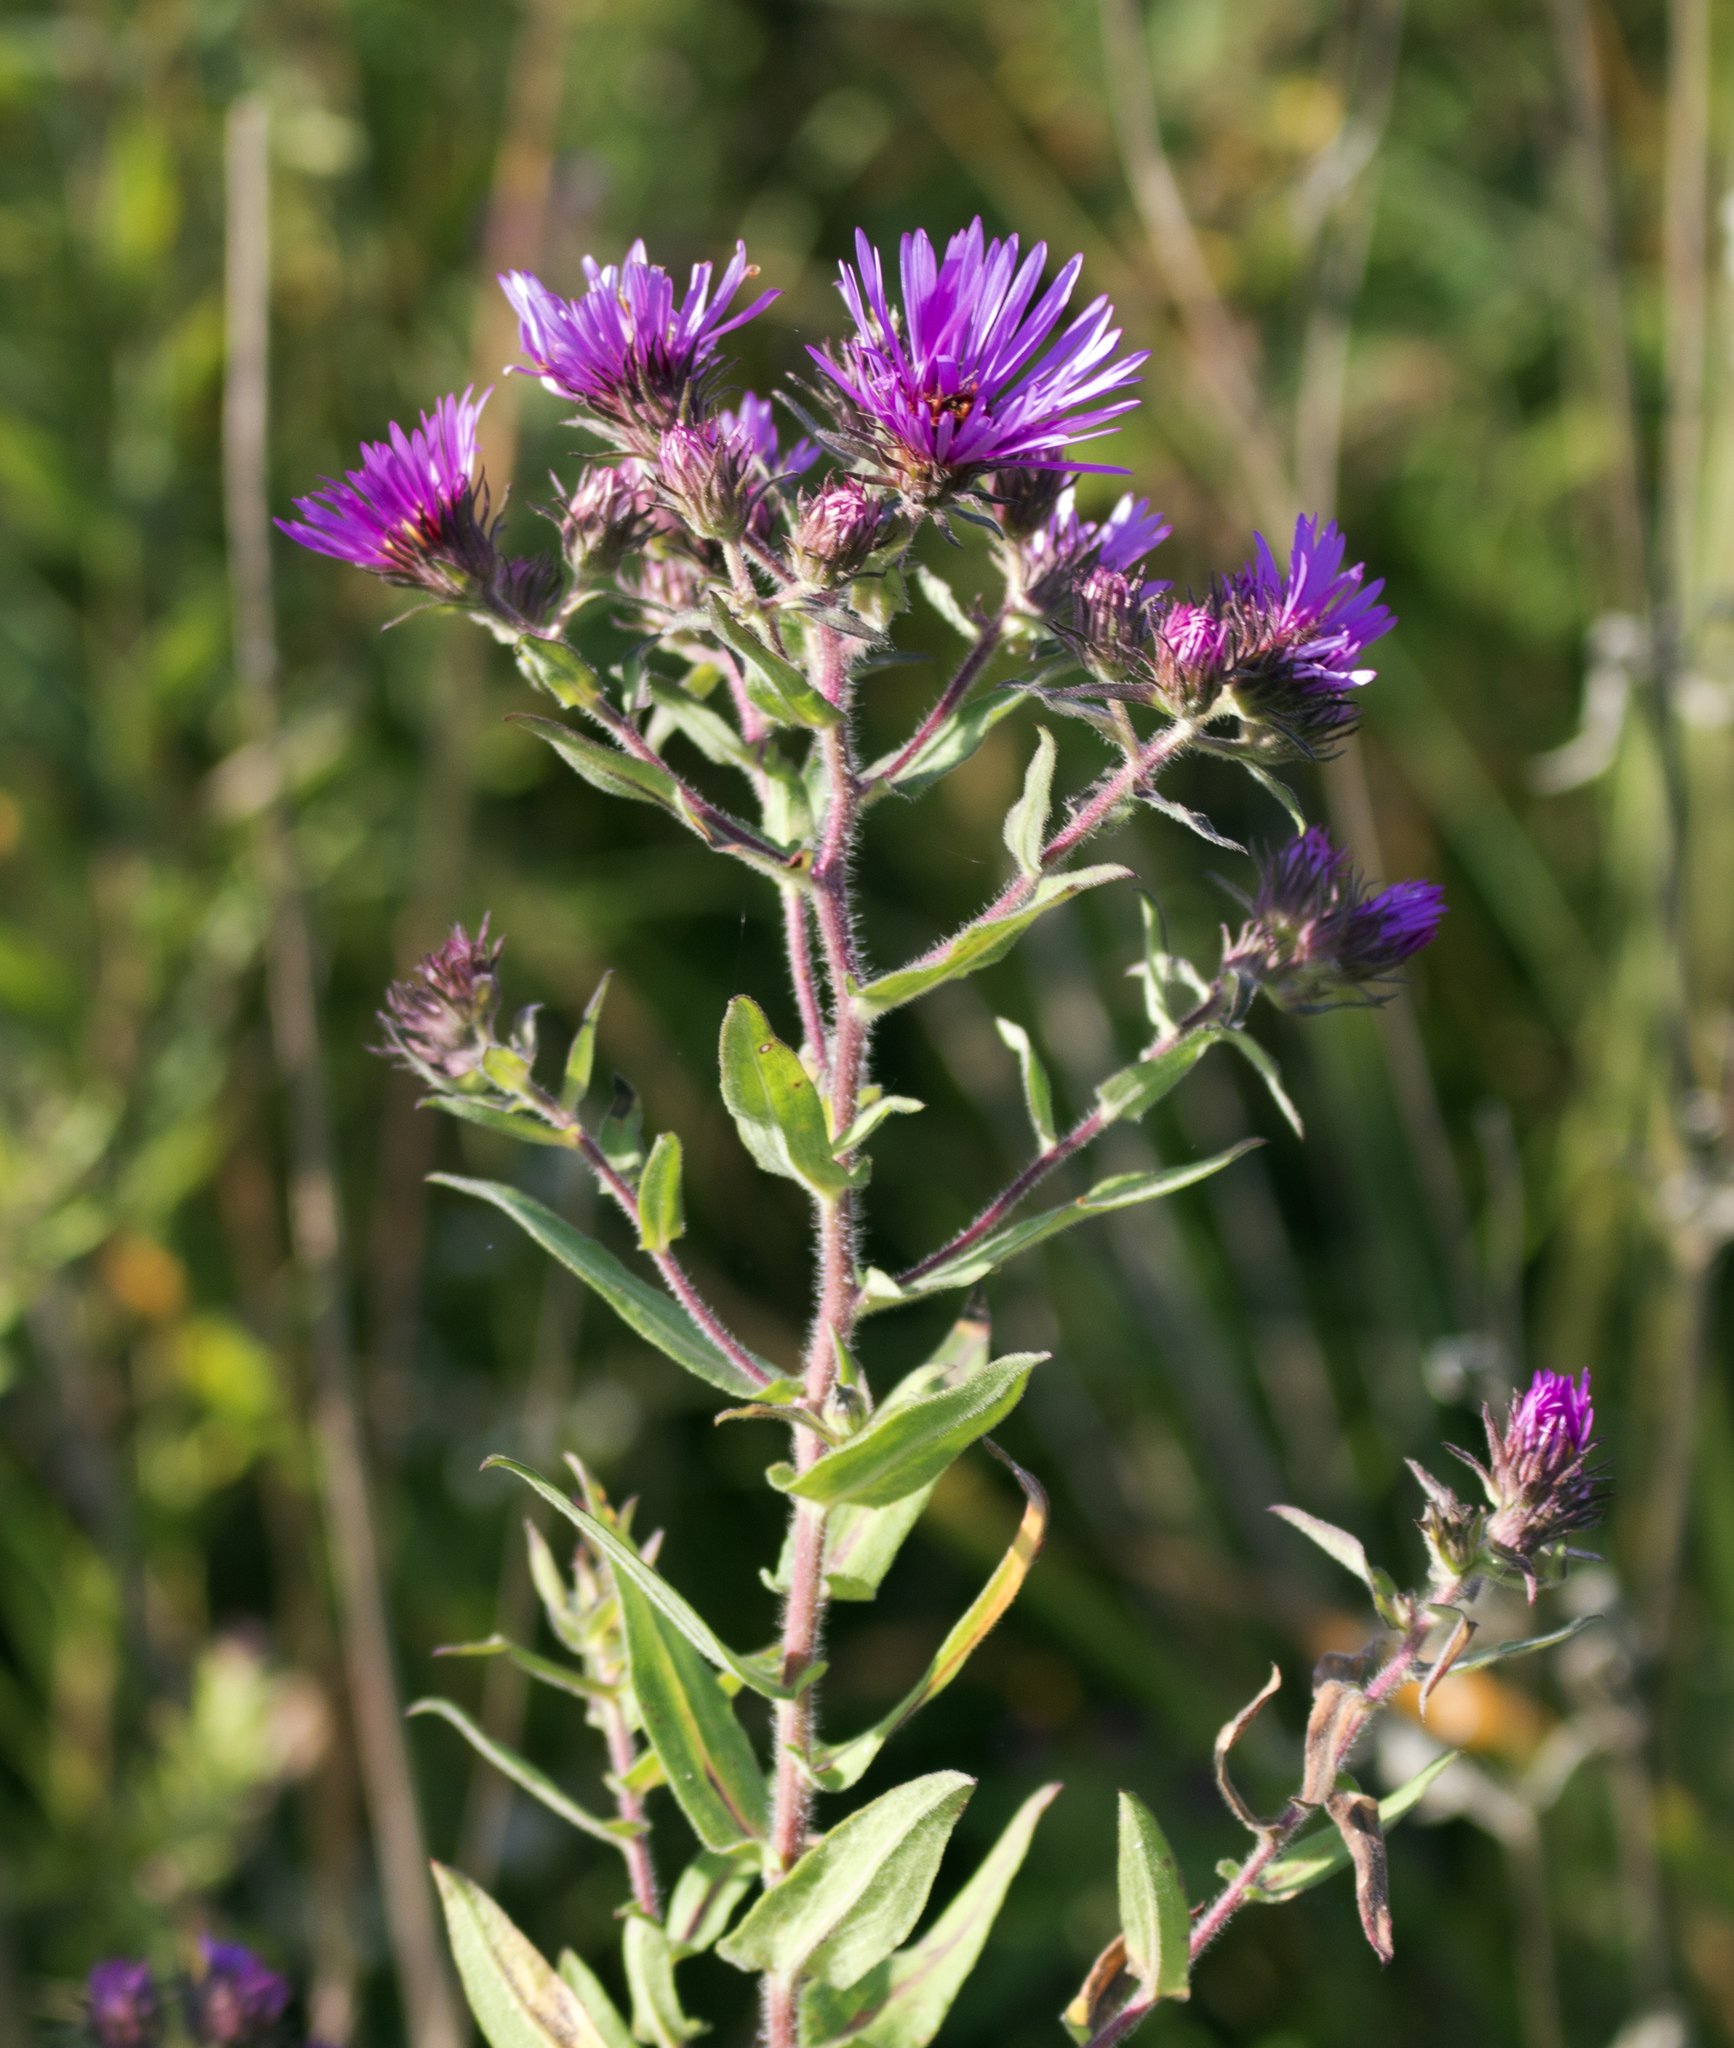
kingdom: Plantae
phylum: Tracheophyta
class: Magnoliopsida
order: Asterales
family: Asteraceae
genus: Symphyotrichum
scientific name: Symphyotrichum novae-angliae
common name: Michaelmas daisy
